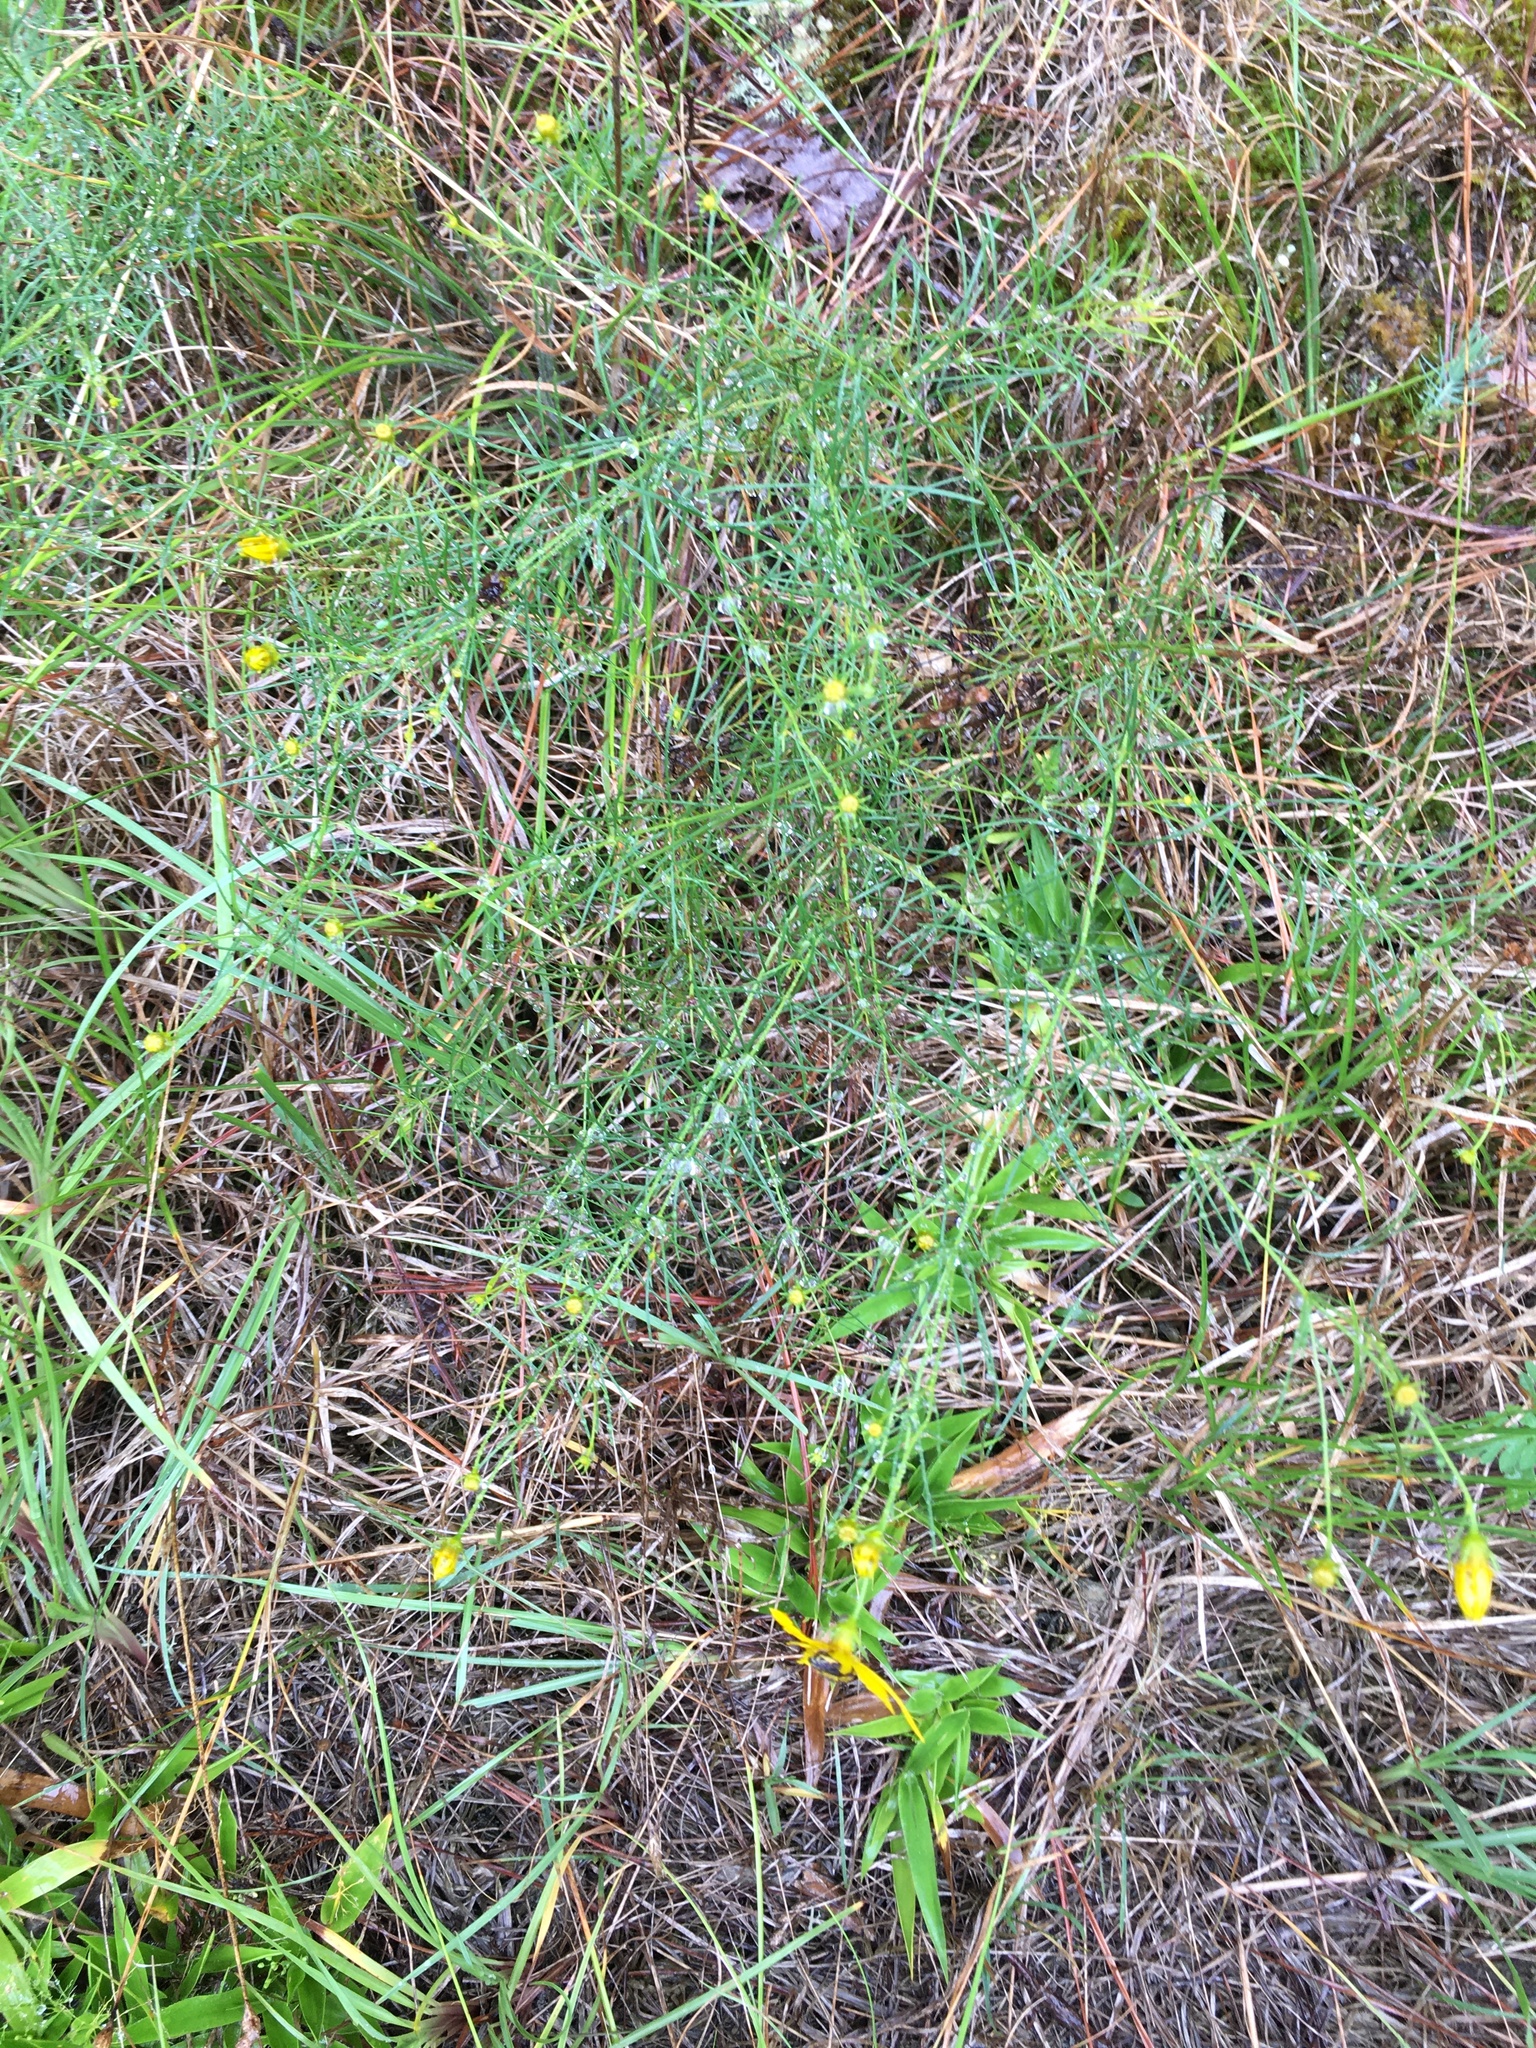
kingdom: Plantae
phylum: Tracheophyta
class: Magnoliopsida
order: Asterales
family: Asteraceae
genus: Coreopsis
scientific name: Coreopsis verticillata
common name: Whorled tickseed
